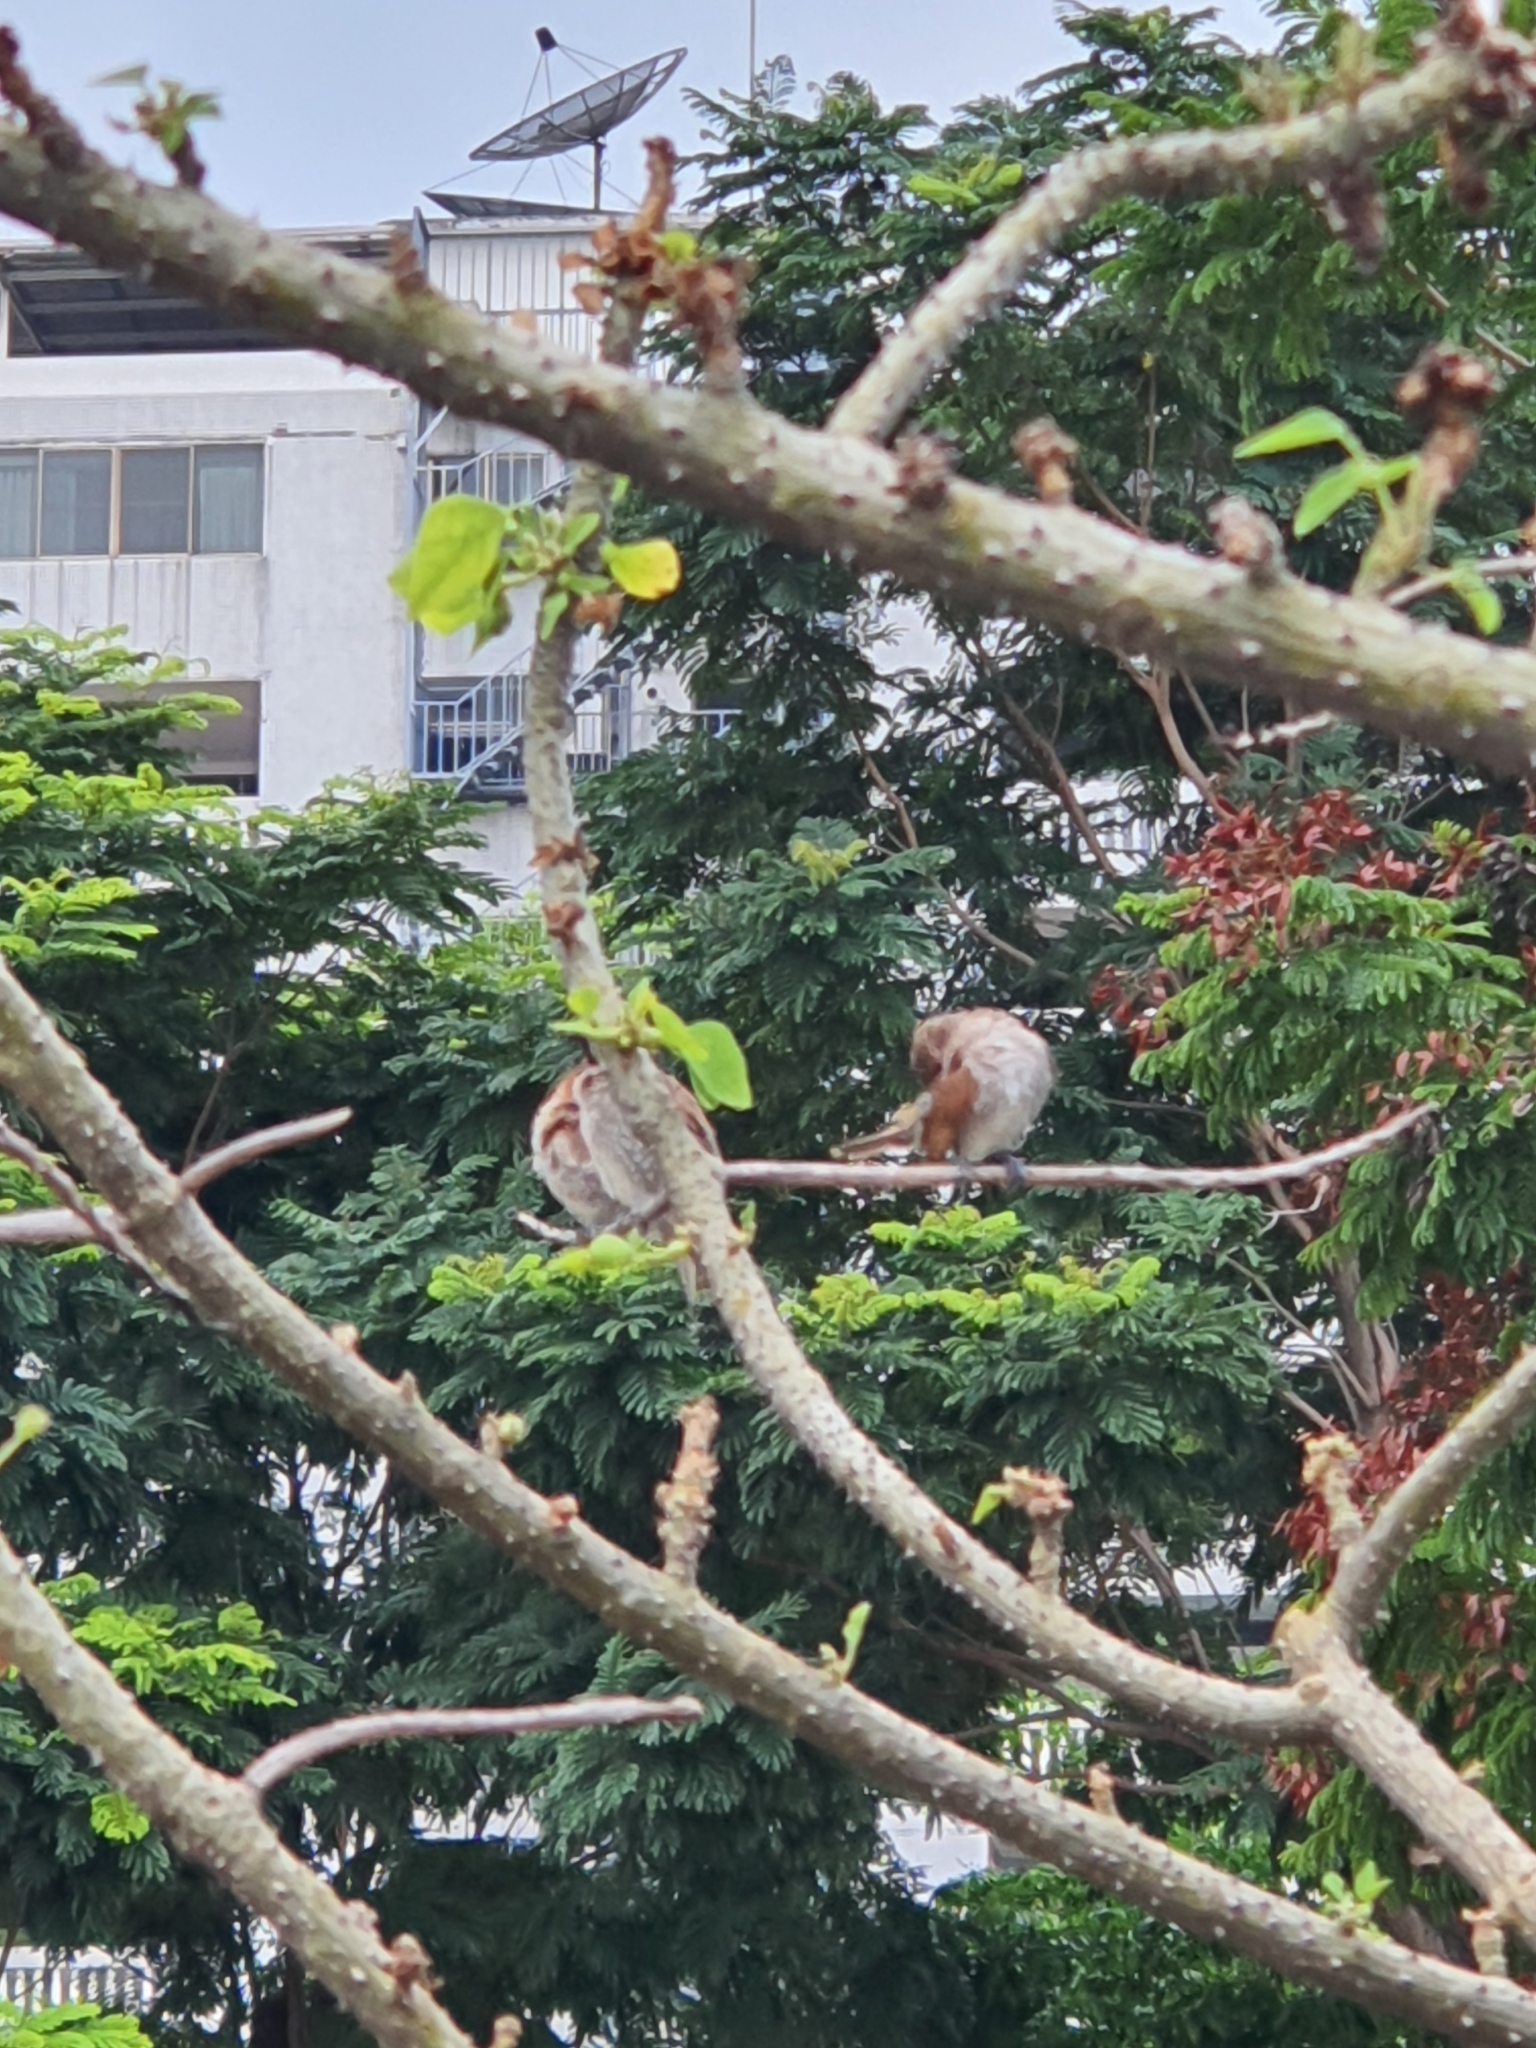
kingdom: Animalia
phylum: Chordata
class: Aves
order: Passeriformes
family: Estrildidae
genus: Lonchura
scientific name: Lonchura punctulata
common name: Scaly-breasted munia
